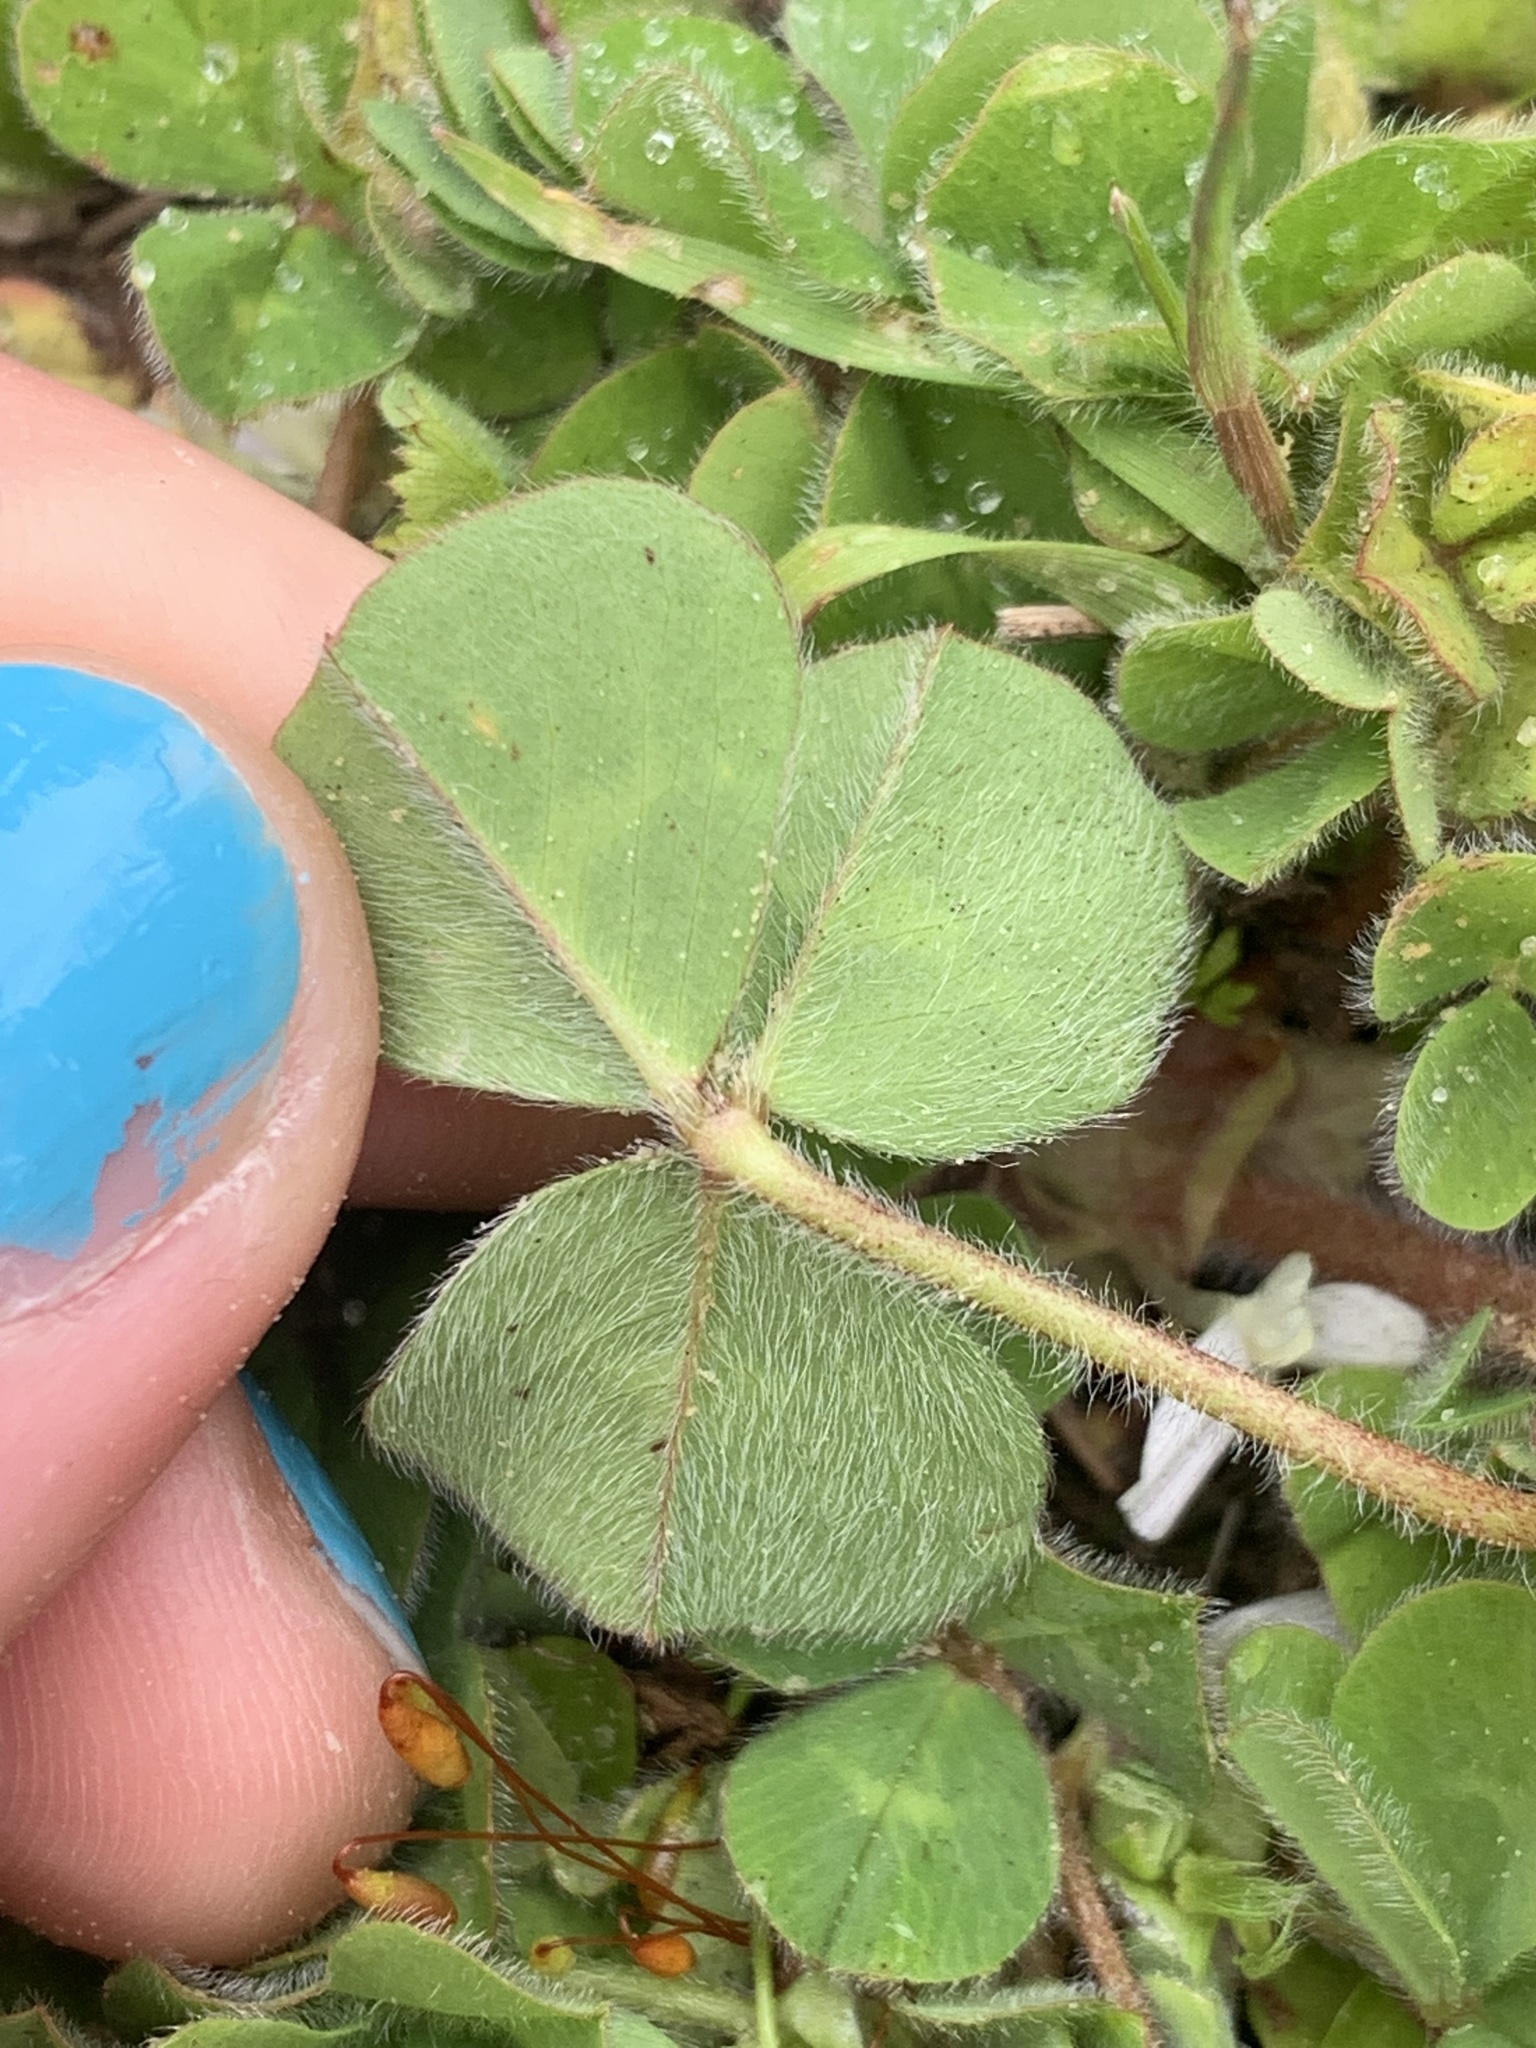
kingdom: Plantae
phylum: Tracheophyta
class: Magnoliopsida
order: Fabales
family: Fabaceae
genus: Trifolium
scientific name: Trifolium subterraneum
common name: Subterranean clover
